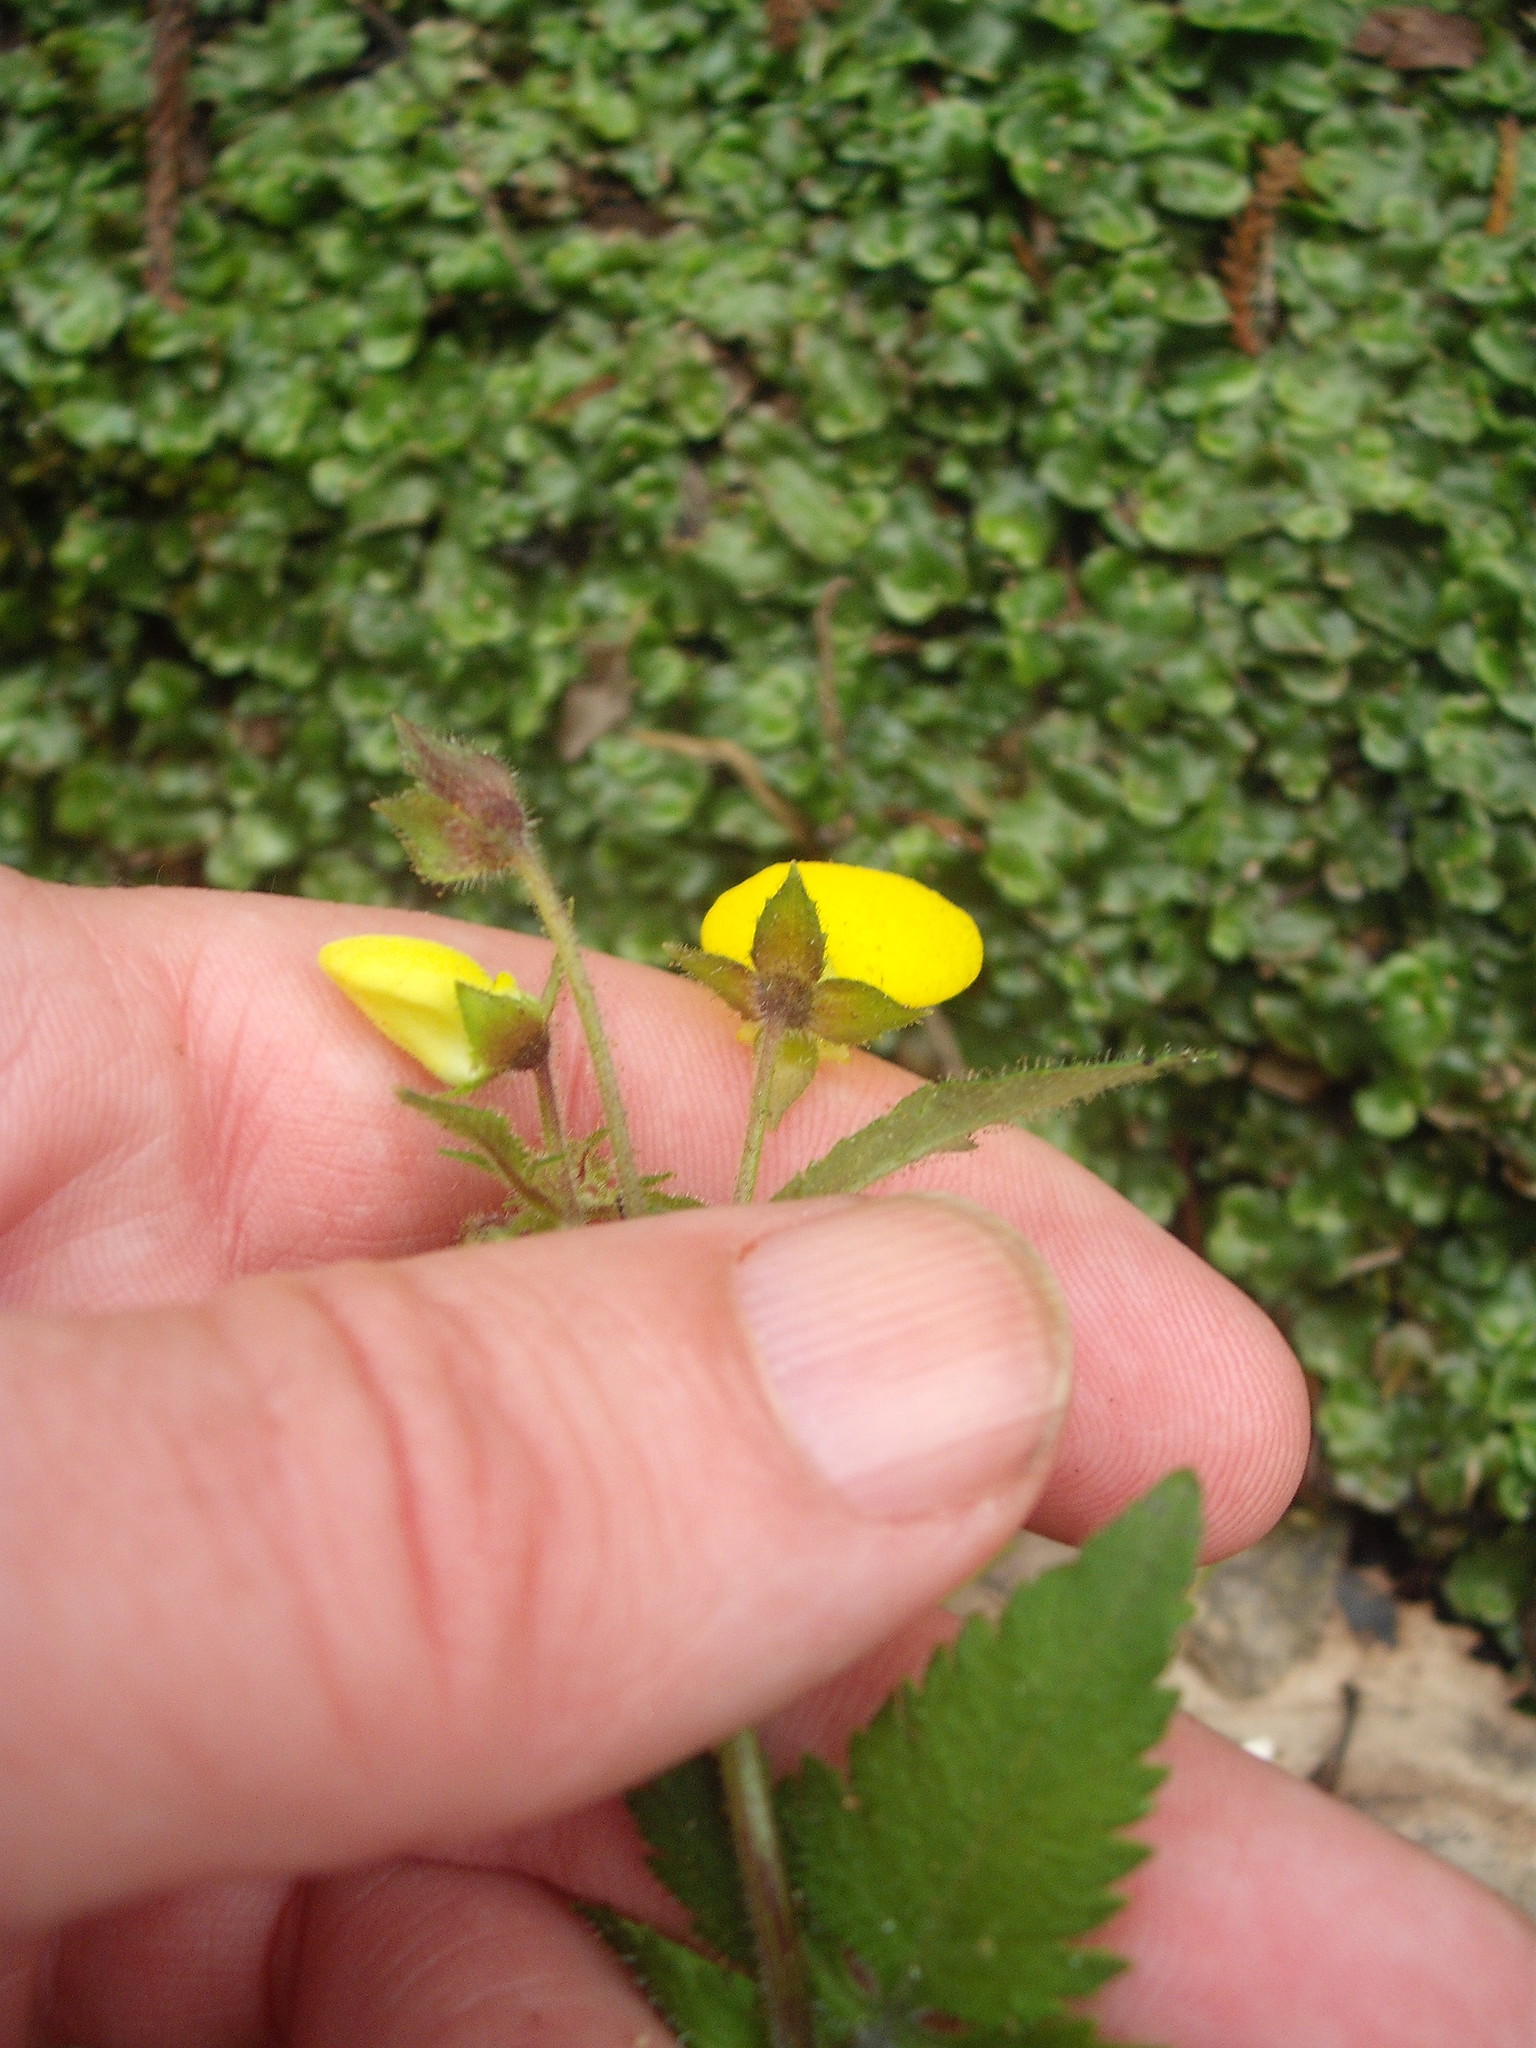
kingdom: Plantae
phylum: Tracheophyta
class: Magnoliopsida
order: Lamiales
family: Calceolariaceae
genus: Calceolaria
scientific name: Calceolaria tripartita
